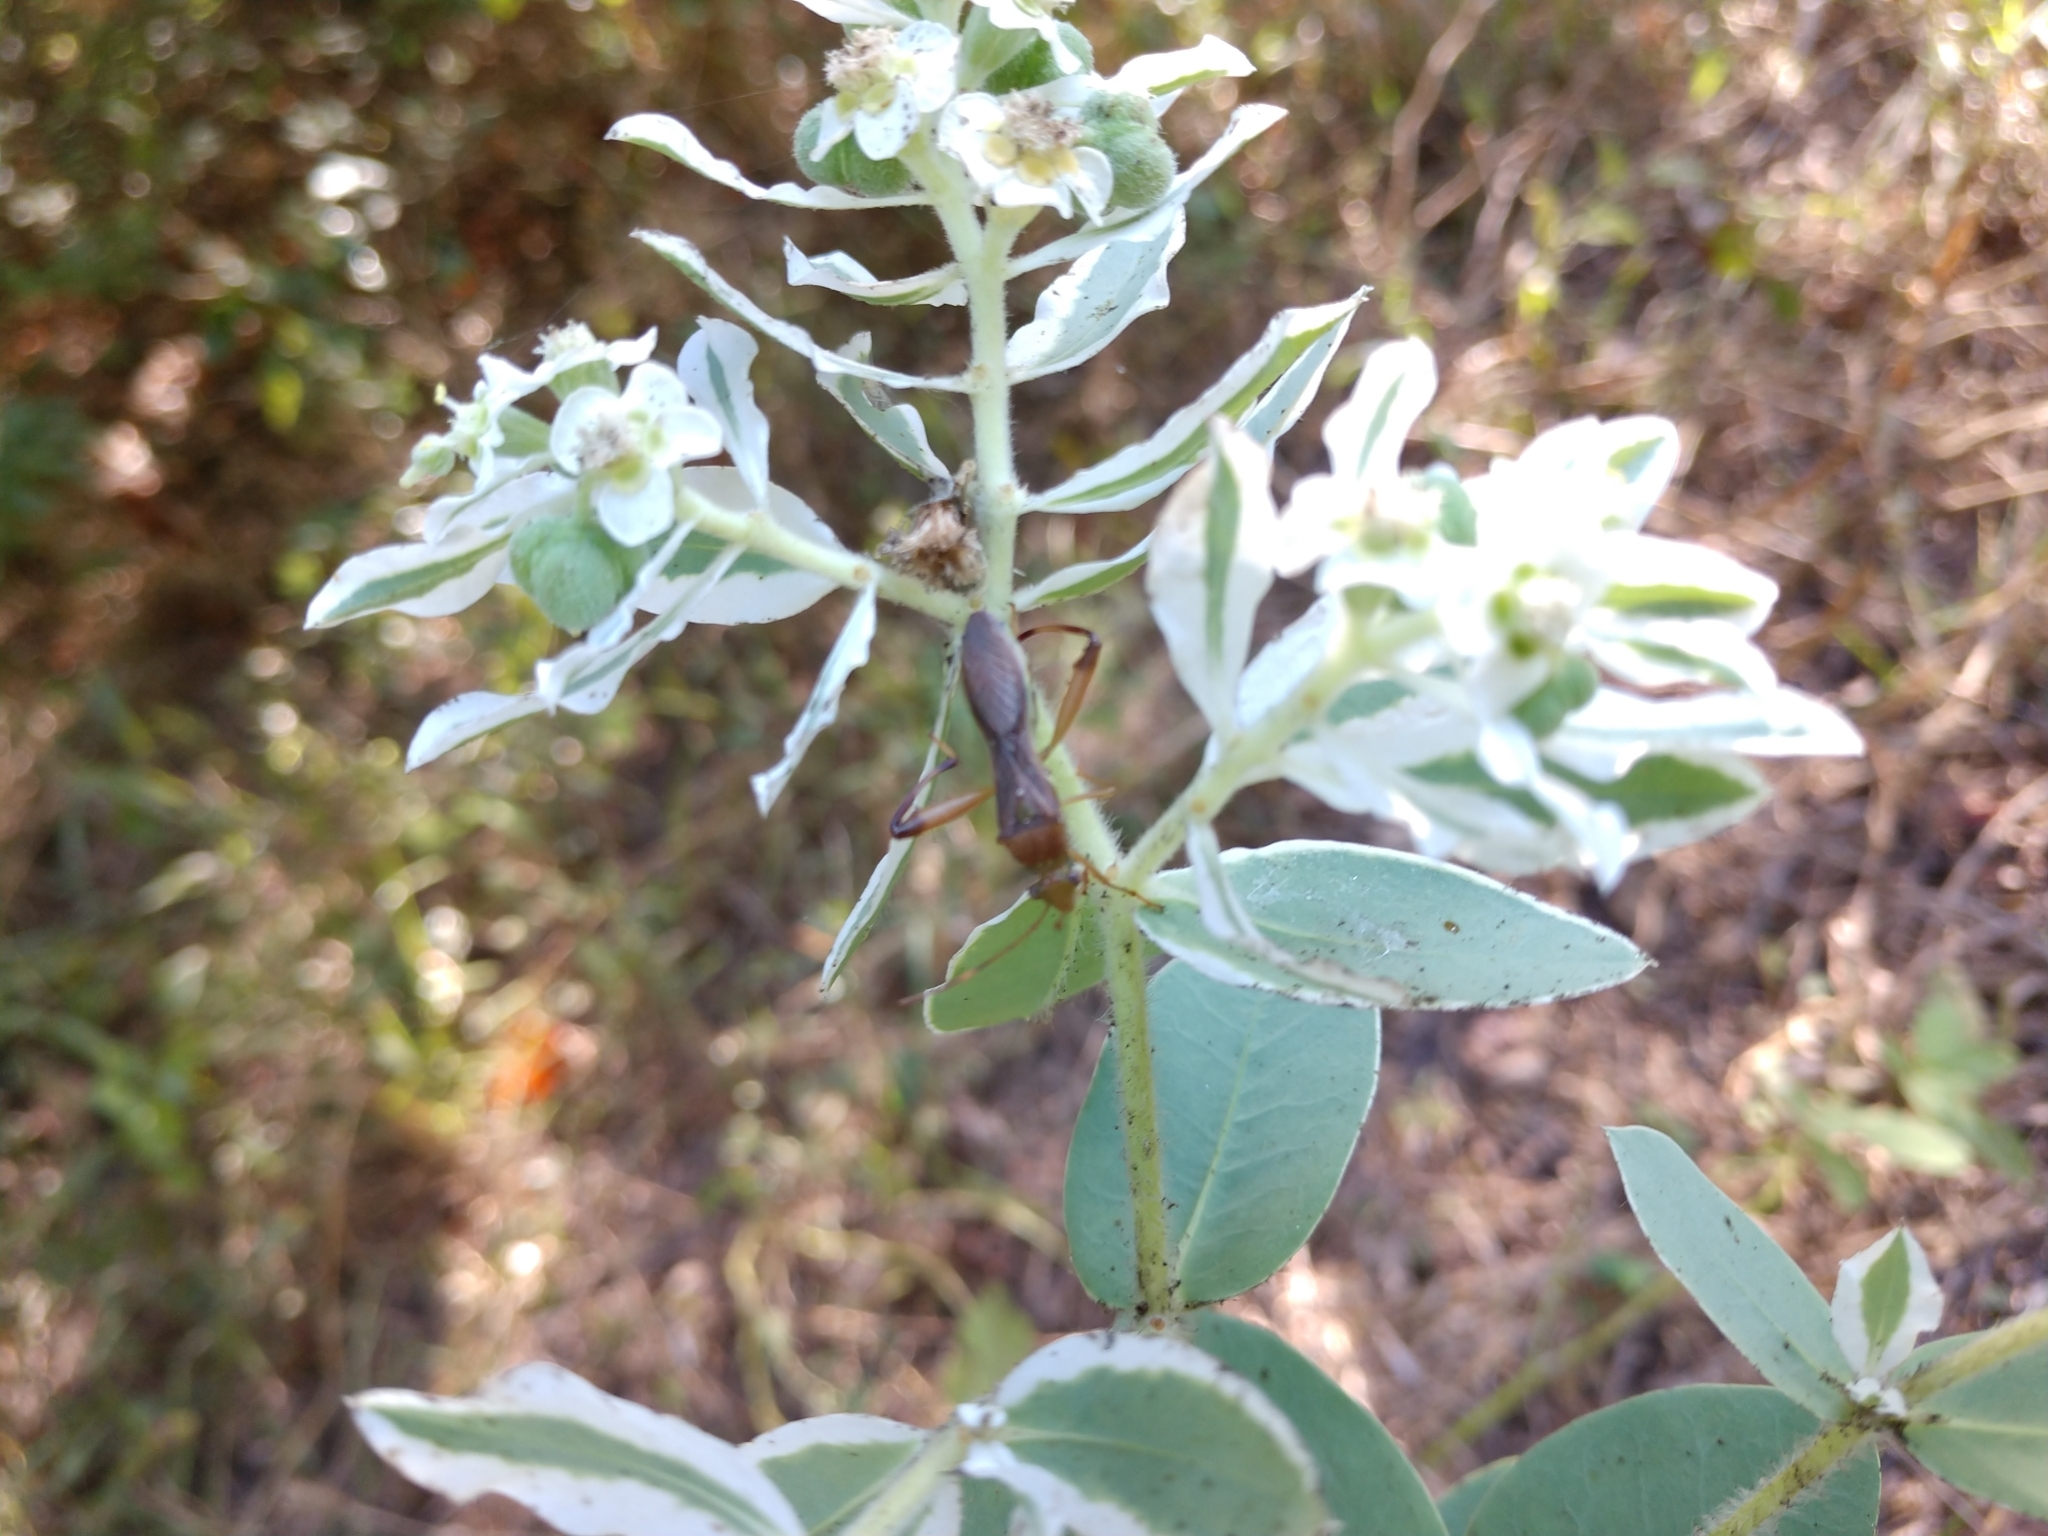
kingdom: Animalia
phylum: Arthropoda
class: Insecta
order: Hemiptera
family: Alydidae
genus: Hyalymenus
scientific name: Hyalymenus tarsatus
